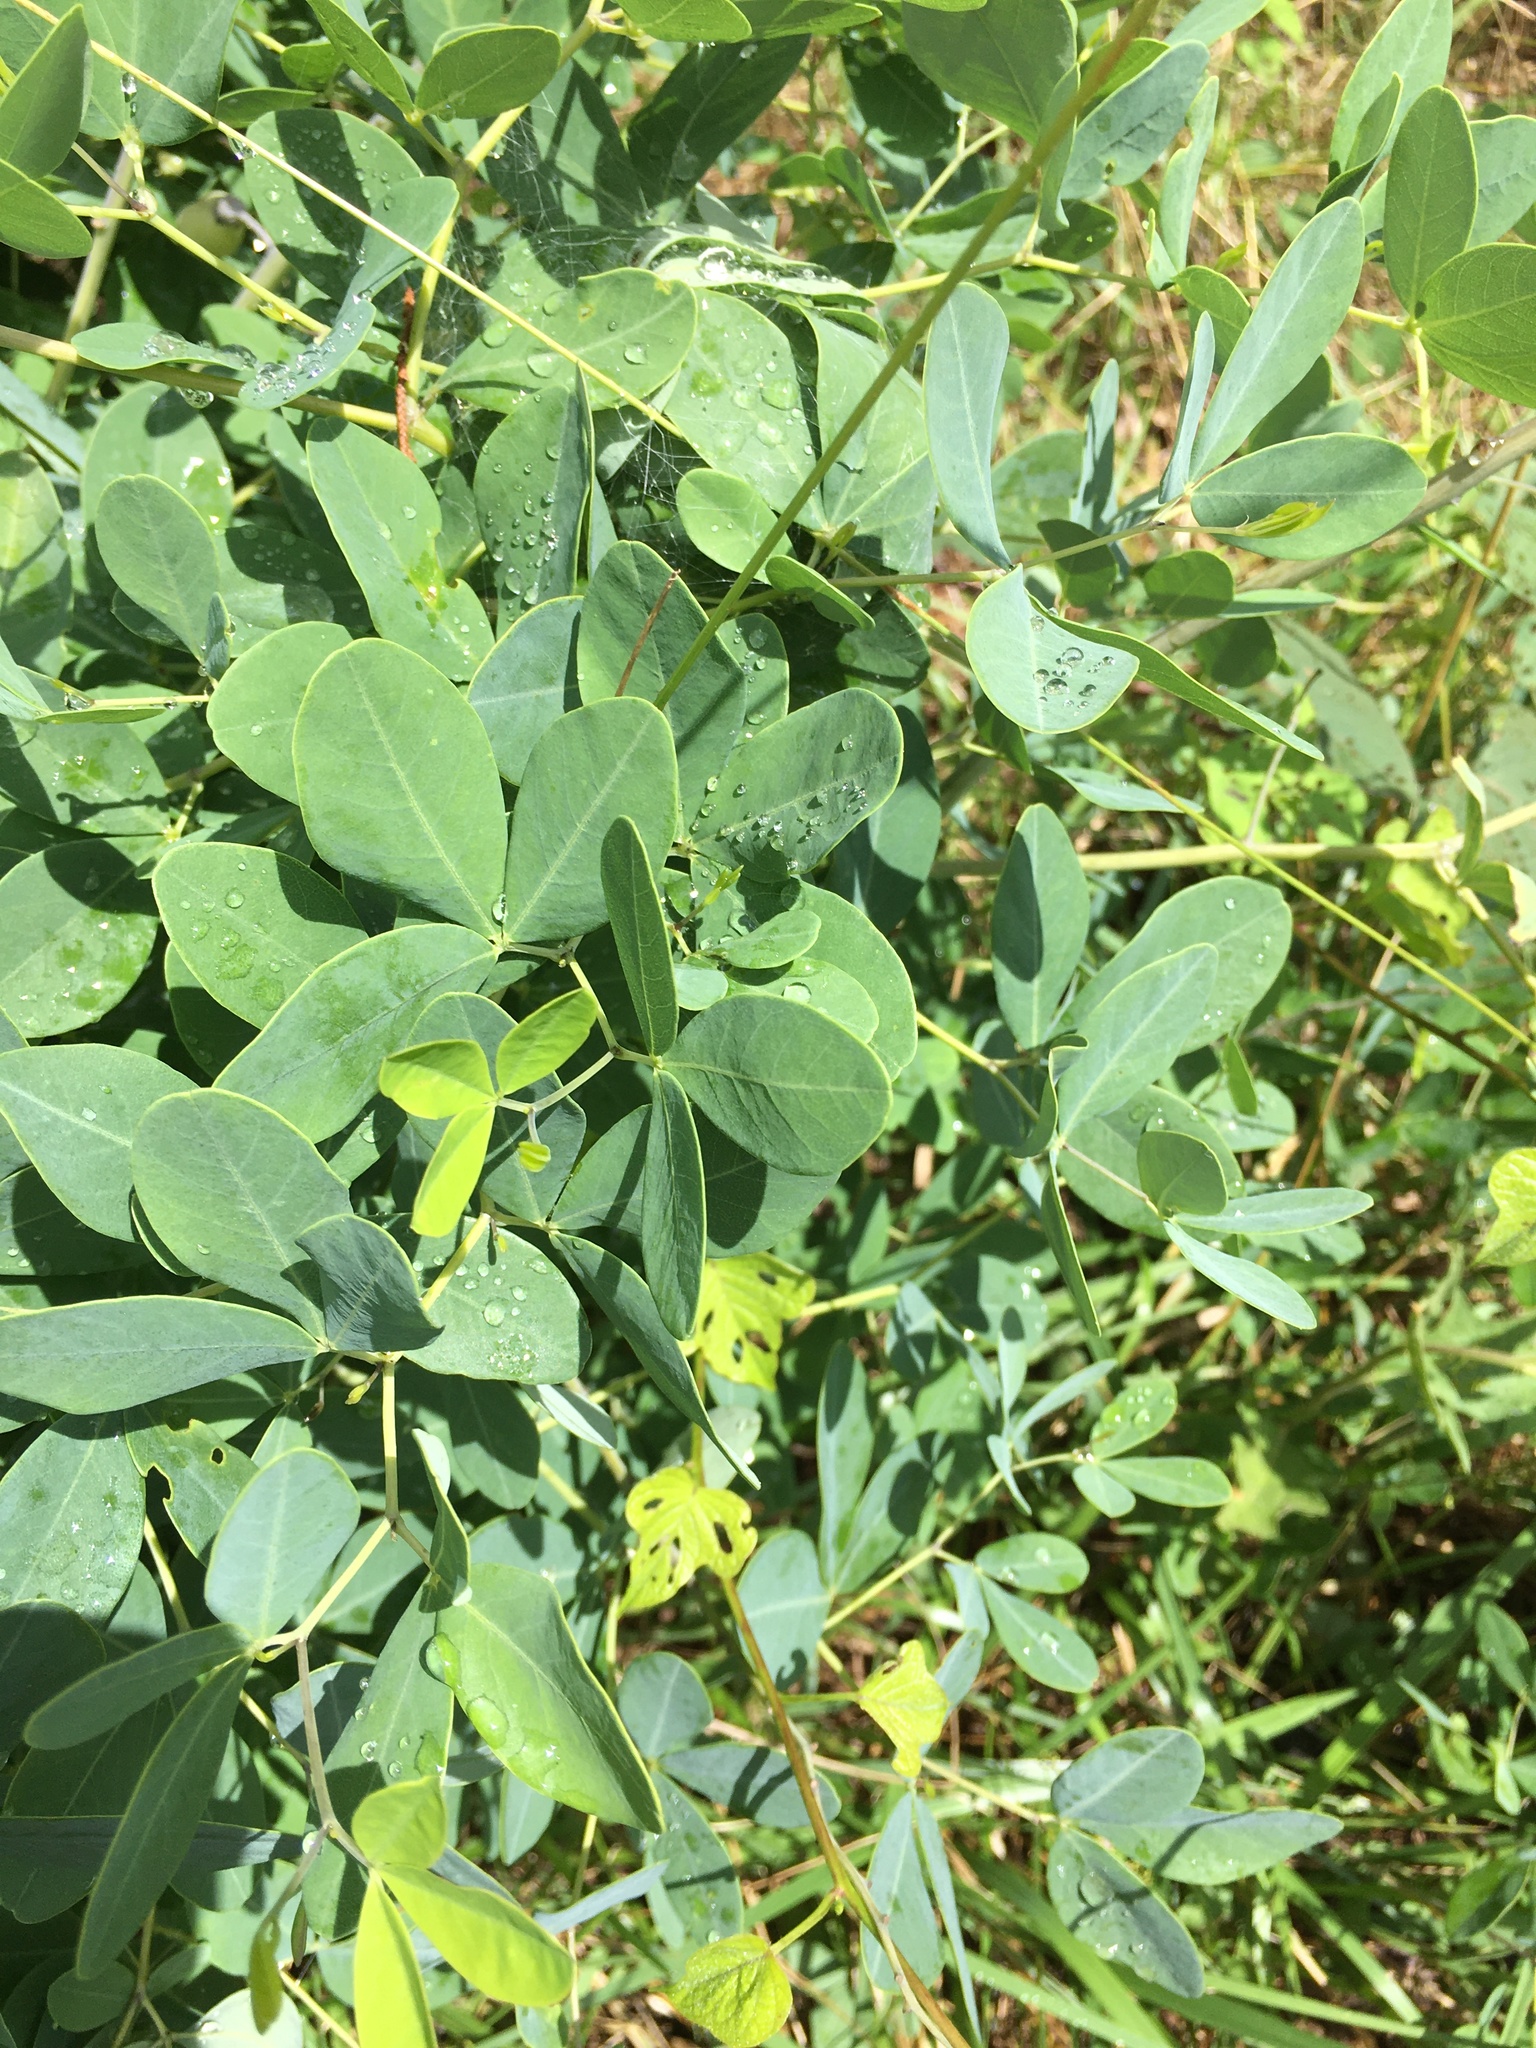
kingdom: Plantae
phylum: Tracheophyta
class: Magnoliopsida
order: Fabales
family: Fabaceae
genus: Baptisia
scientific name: Baptisia alba
